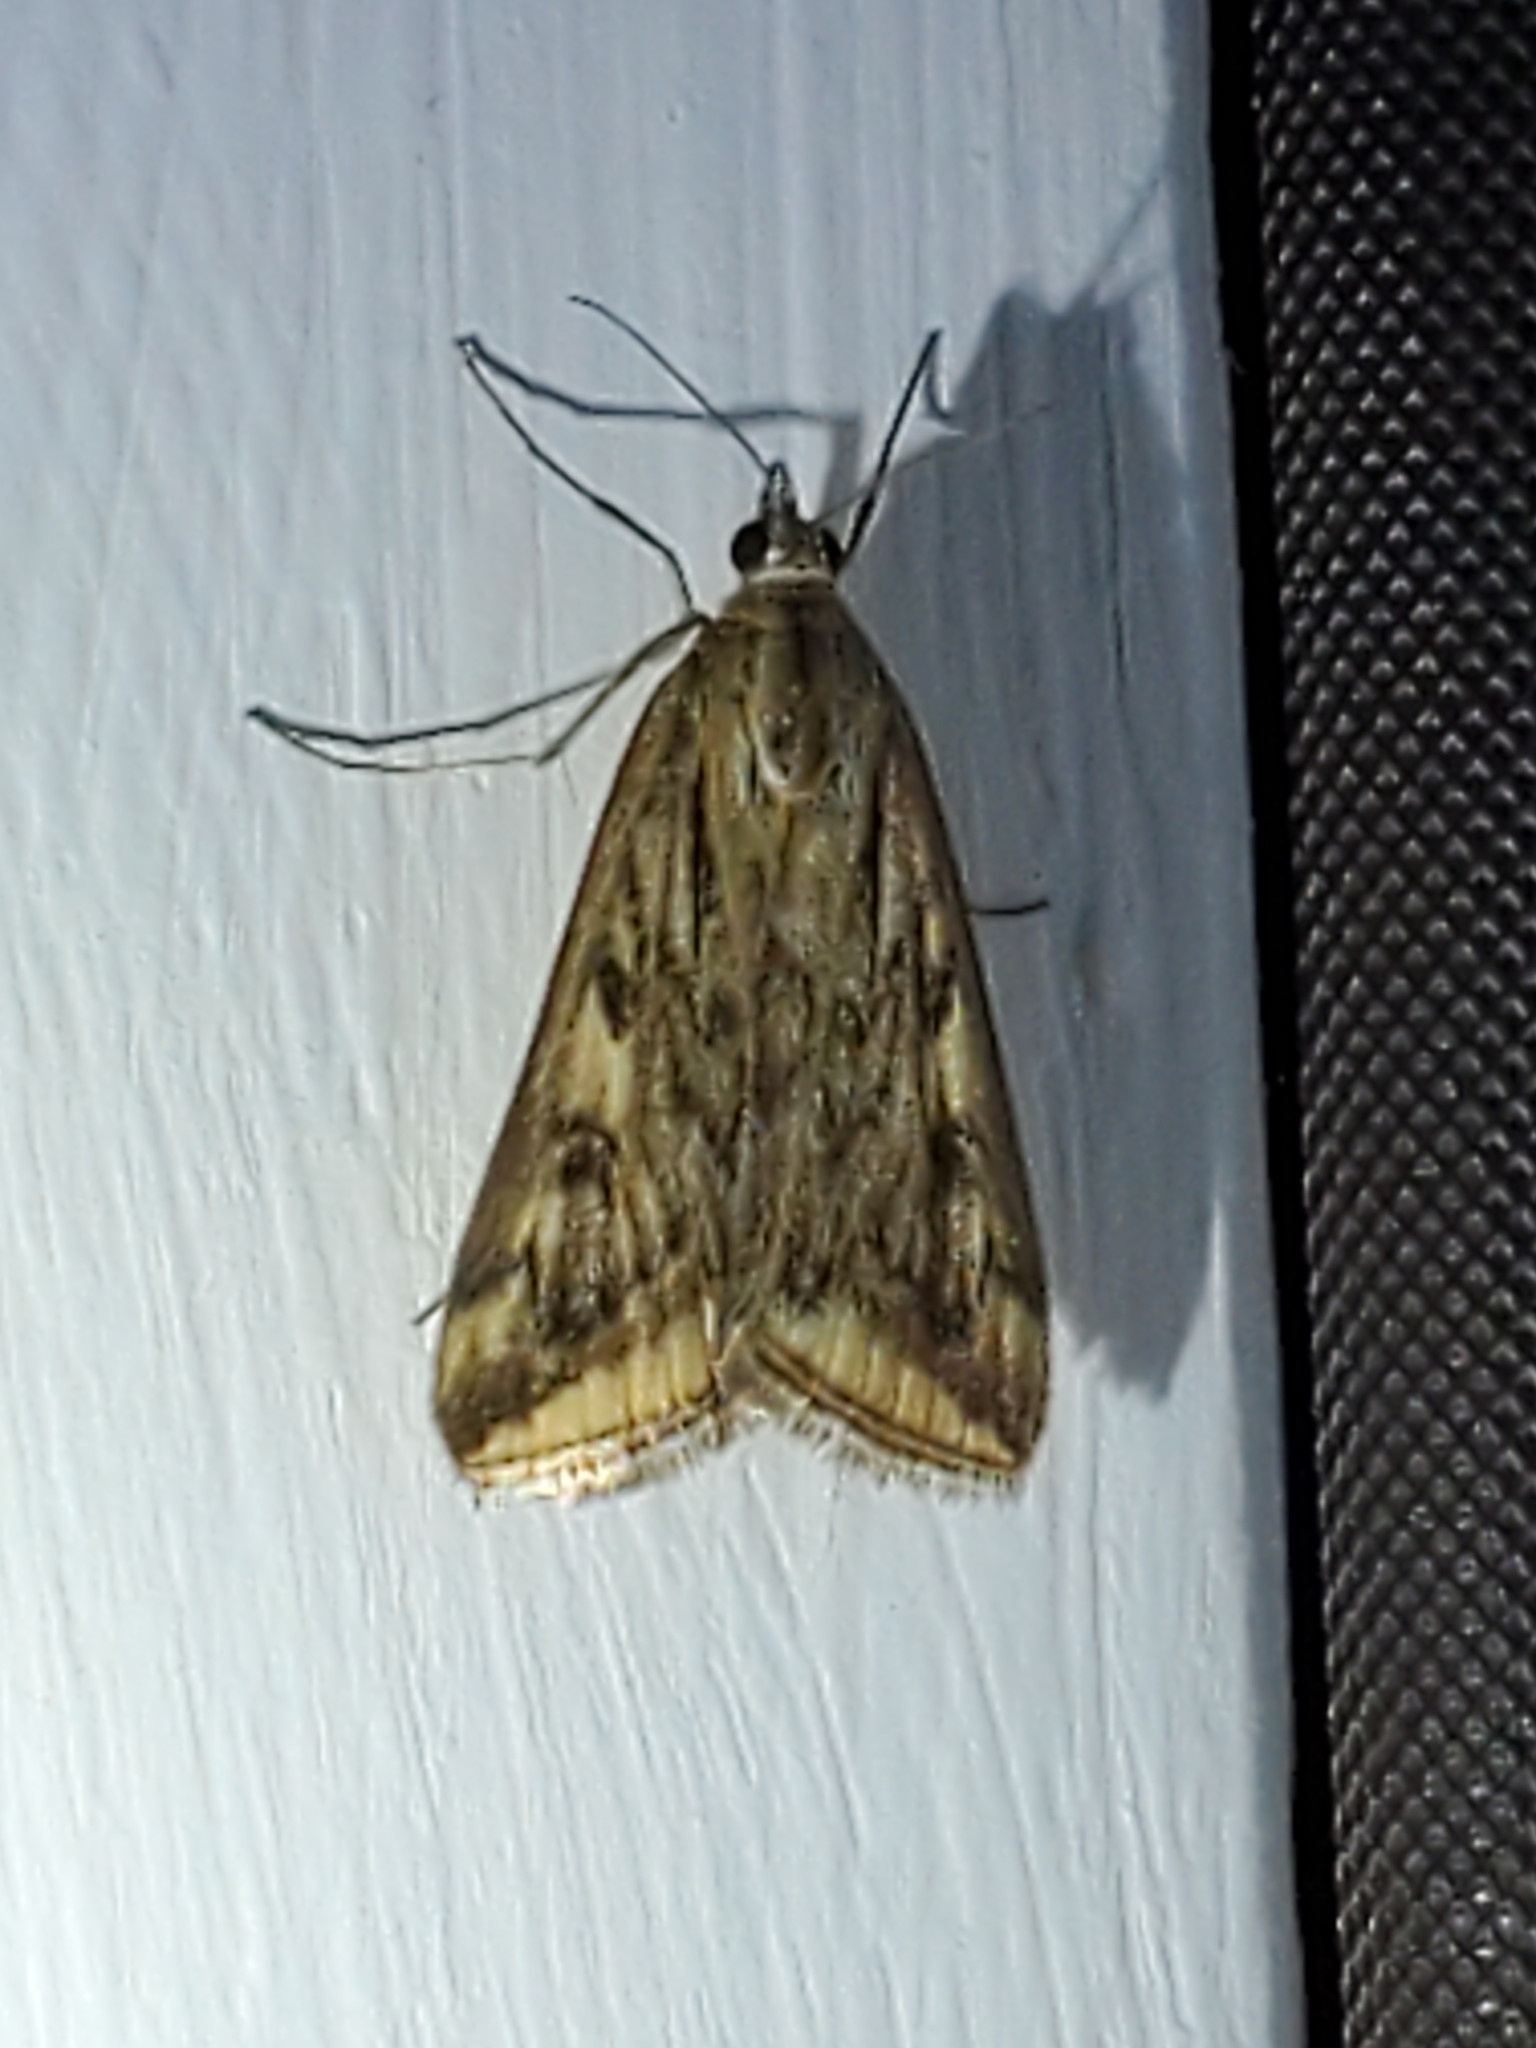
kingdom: Animalia
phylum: Arthropoda
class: Insecta
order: Lepidoptera
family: Crambidae
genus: Loxostege
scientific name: Loxostege cereralis
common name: Alfalfa webworm moth
